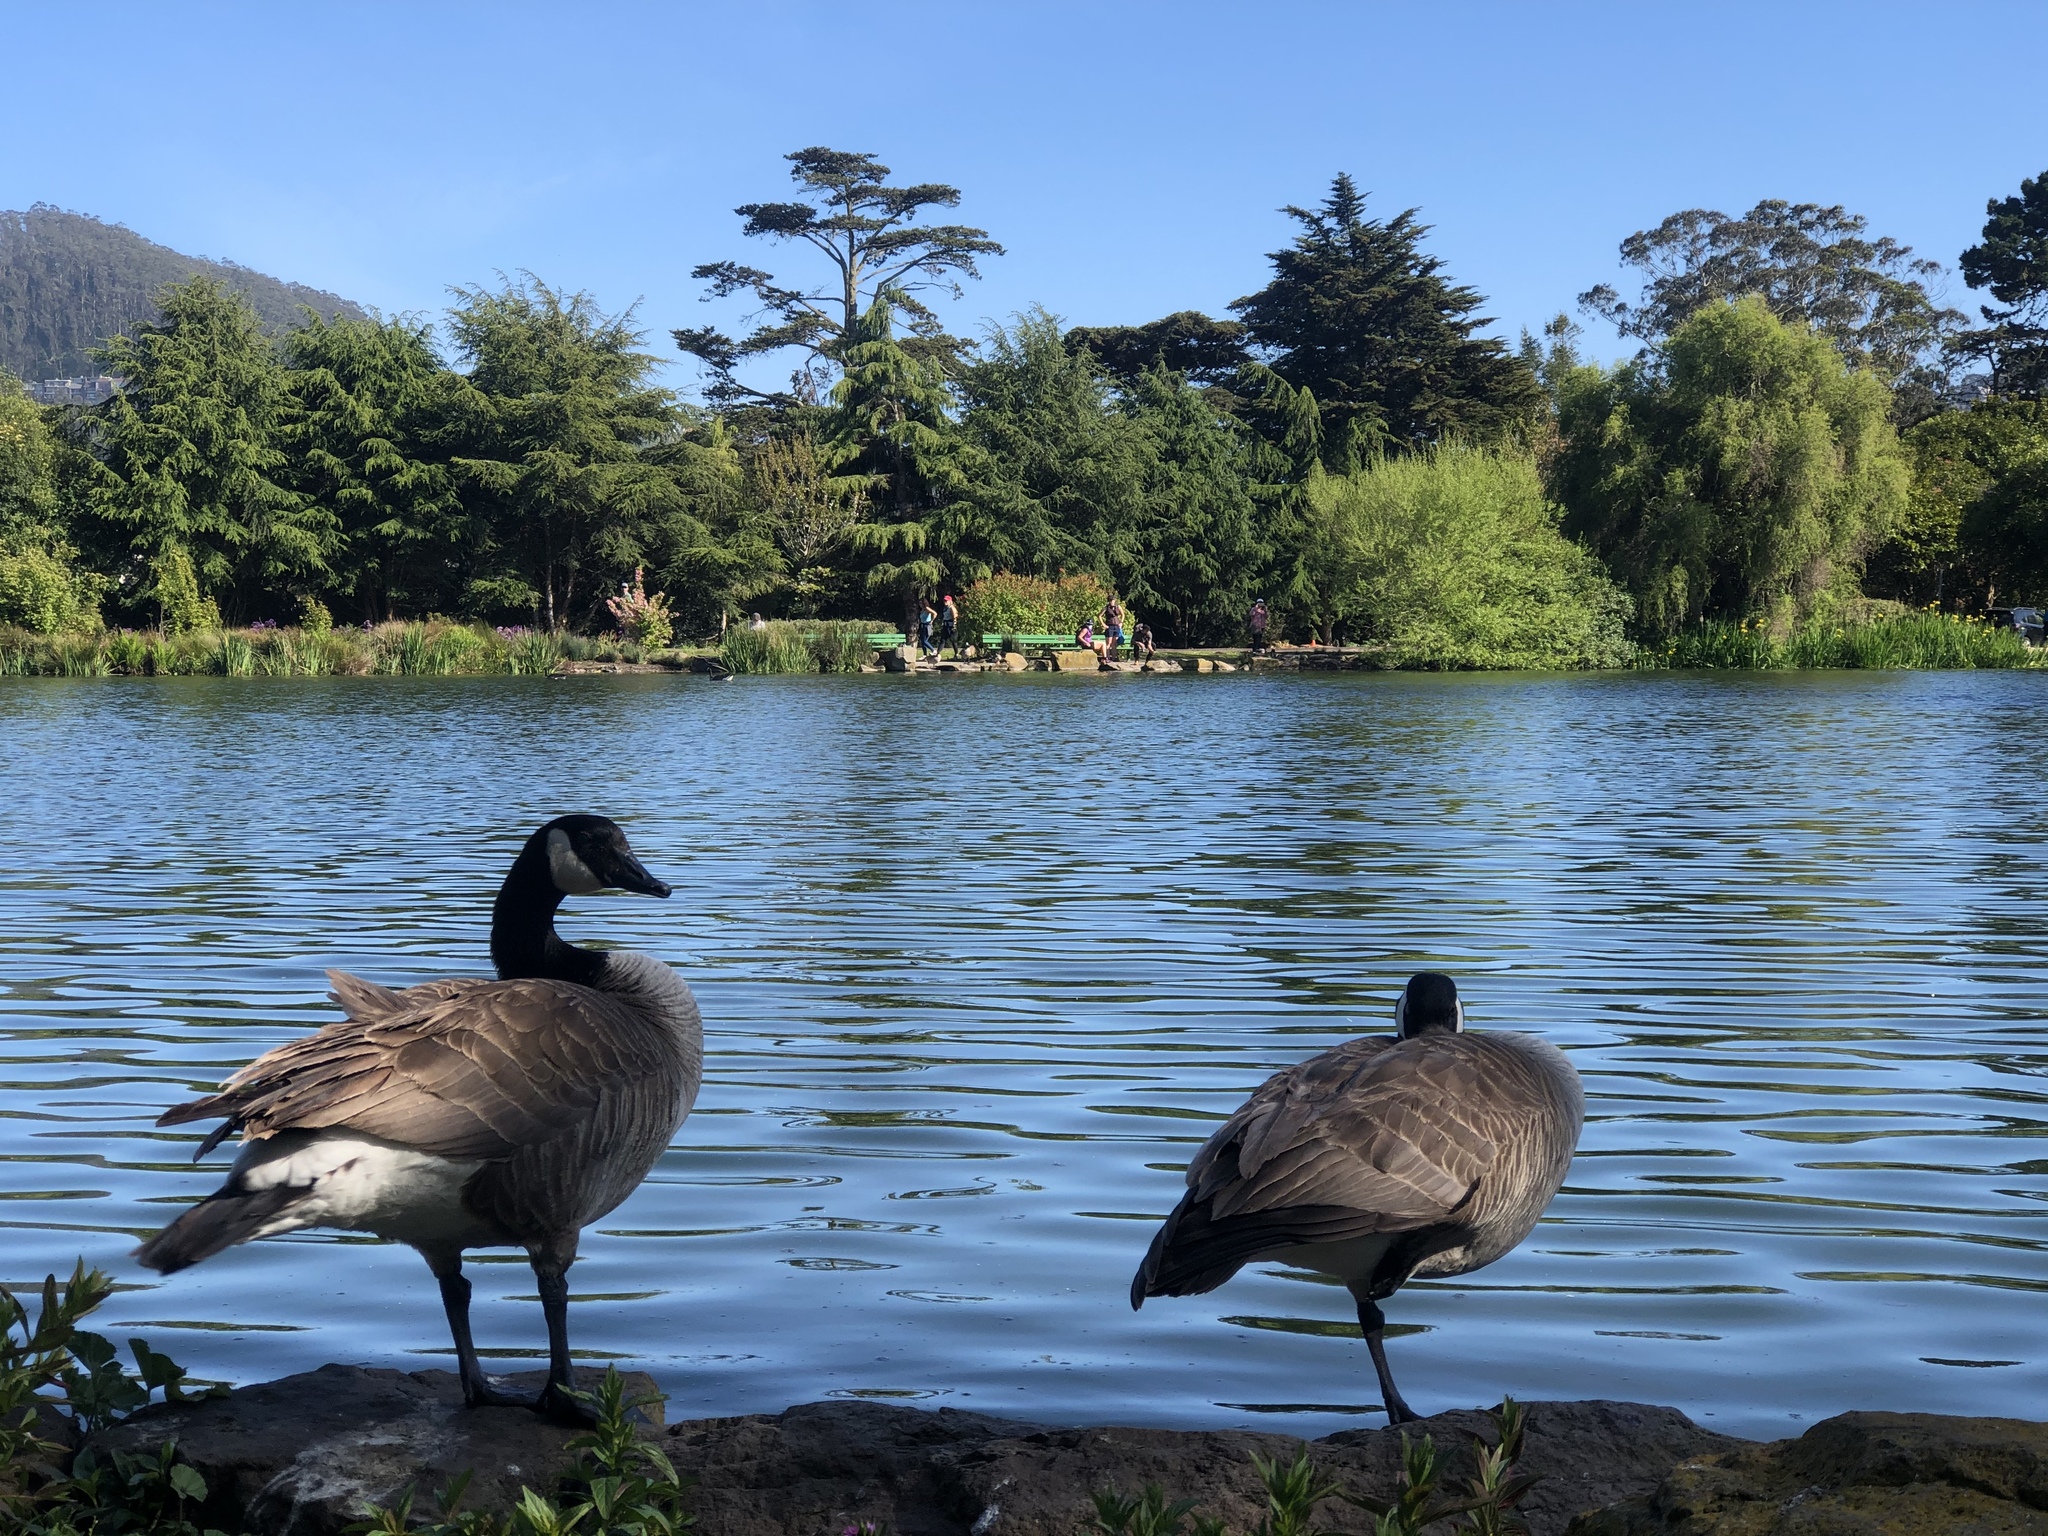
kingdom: Animalia
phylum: Chordata
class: Aves
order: Anseriformes
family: Anatidae
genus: Branta
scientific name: Branta canadensis
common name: Canada goose
